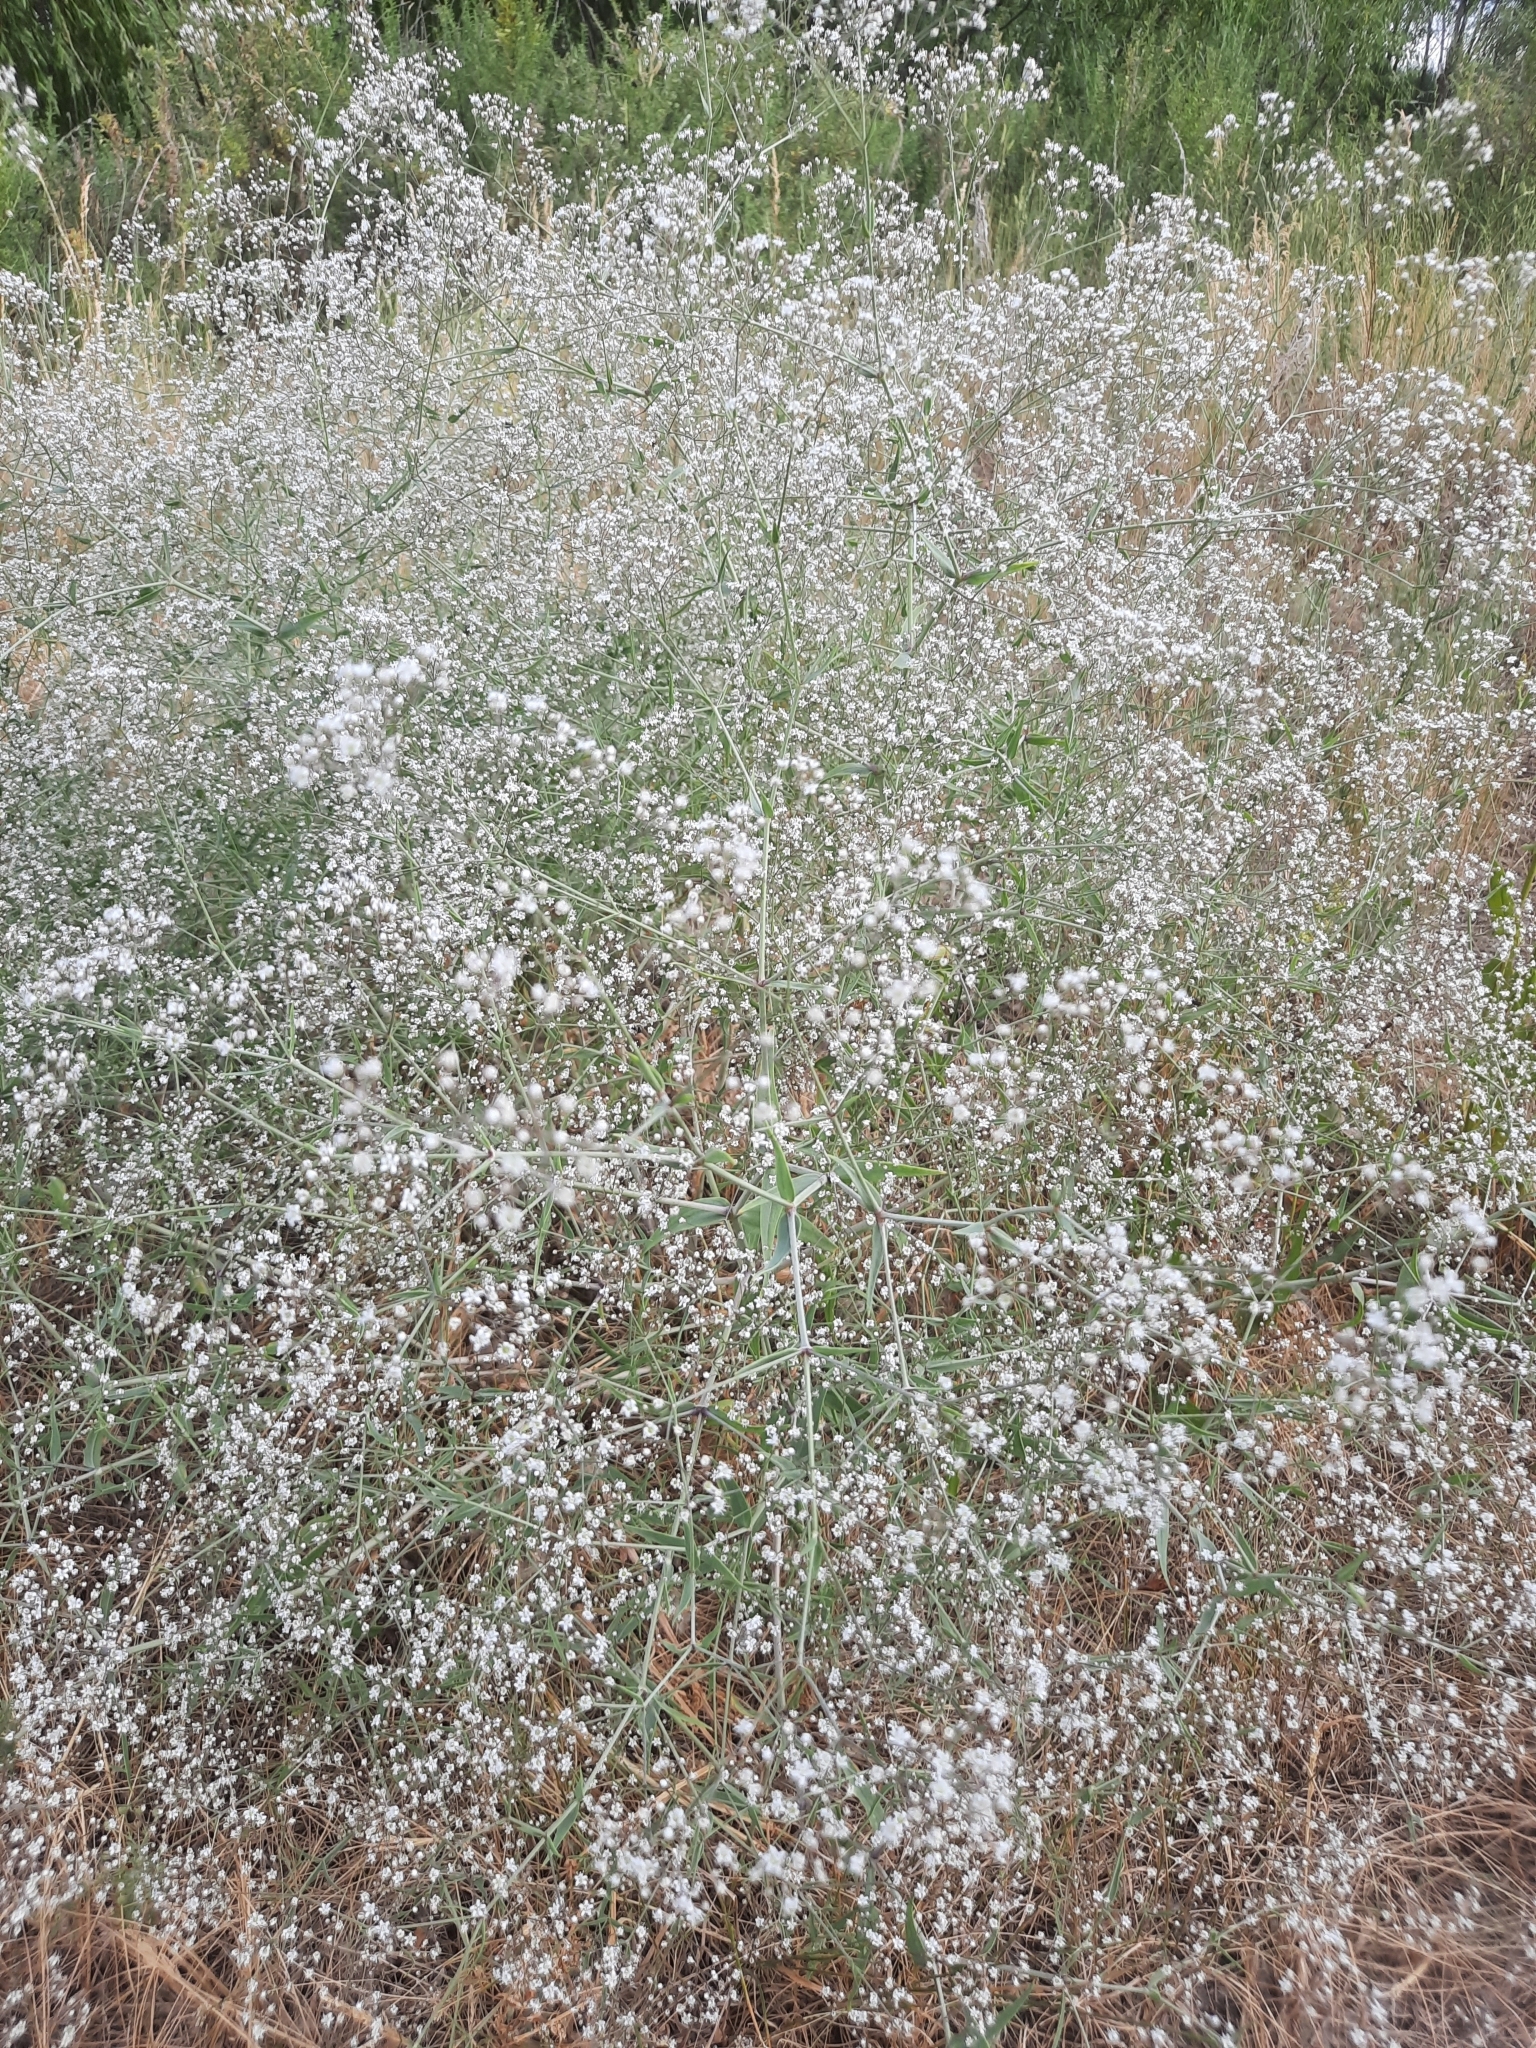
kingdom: Plantae
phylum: Tracheophyta
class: Magnoliopsida
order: Caryophyllales
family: Caryophyllaceae
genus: Gypsophila
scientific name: Gypsophila paniculata
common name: Baby's-breath
